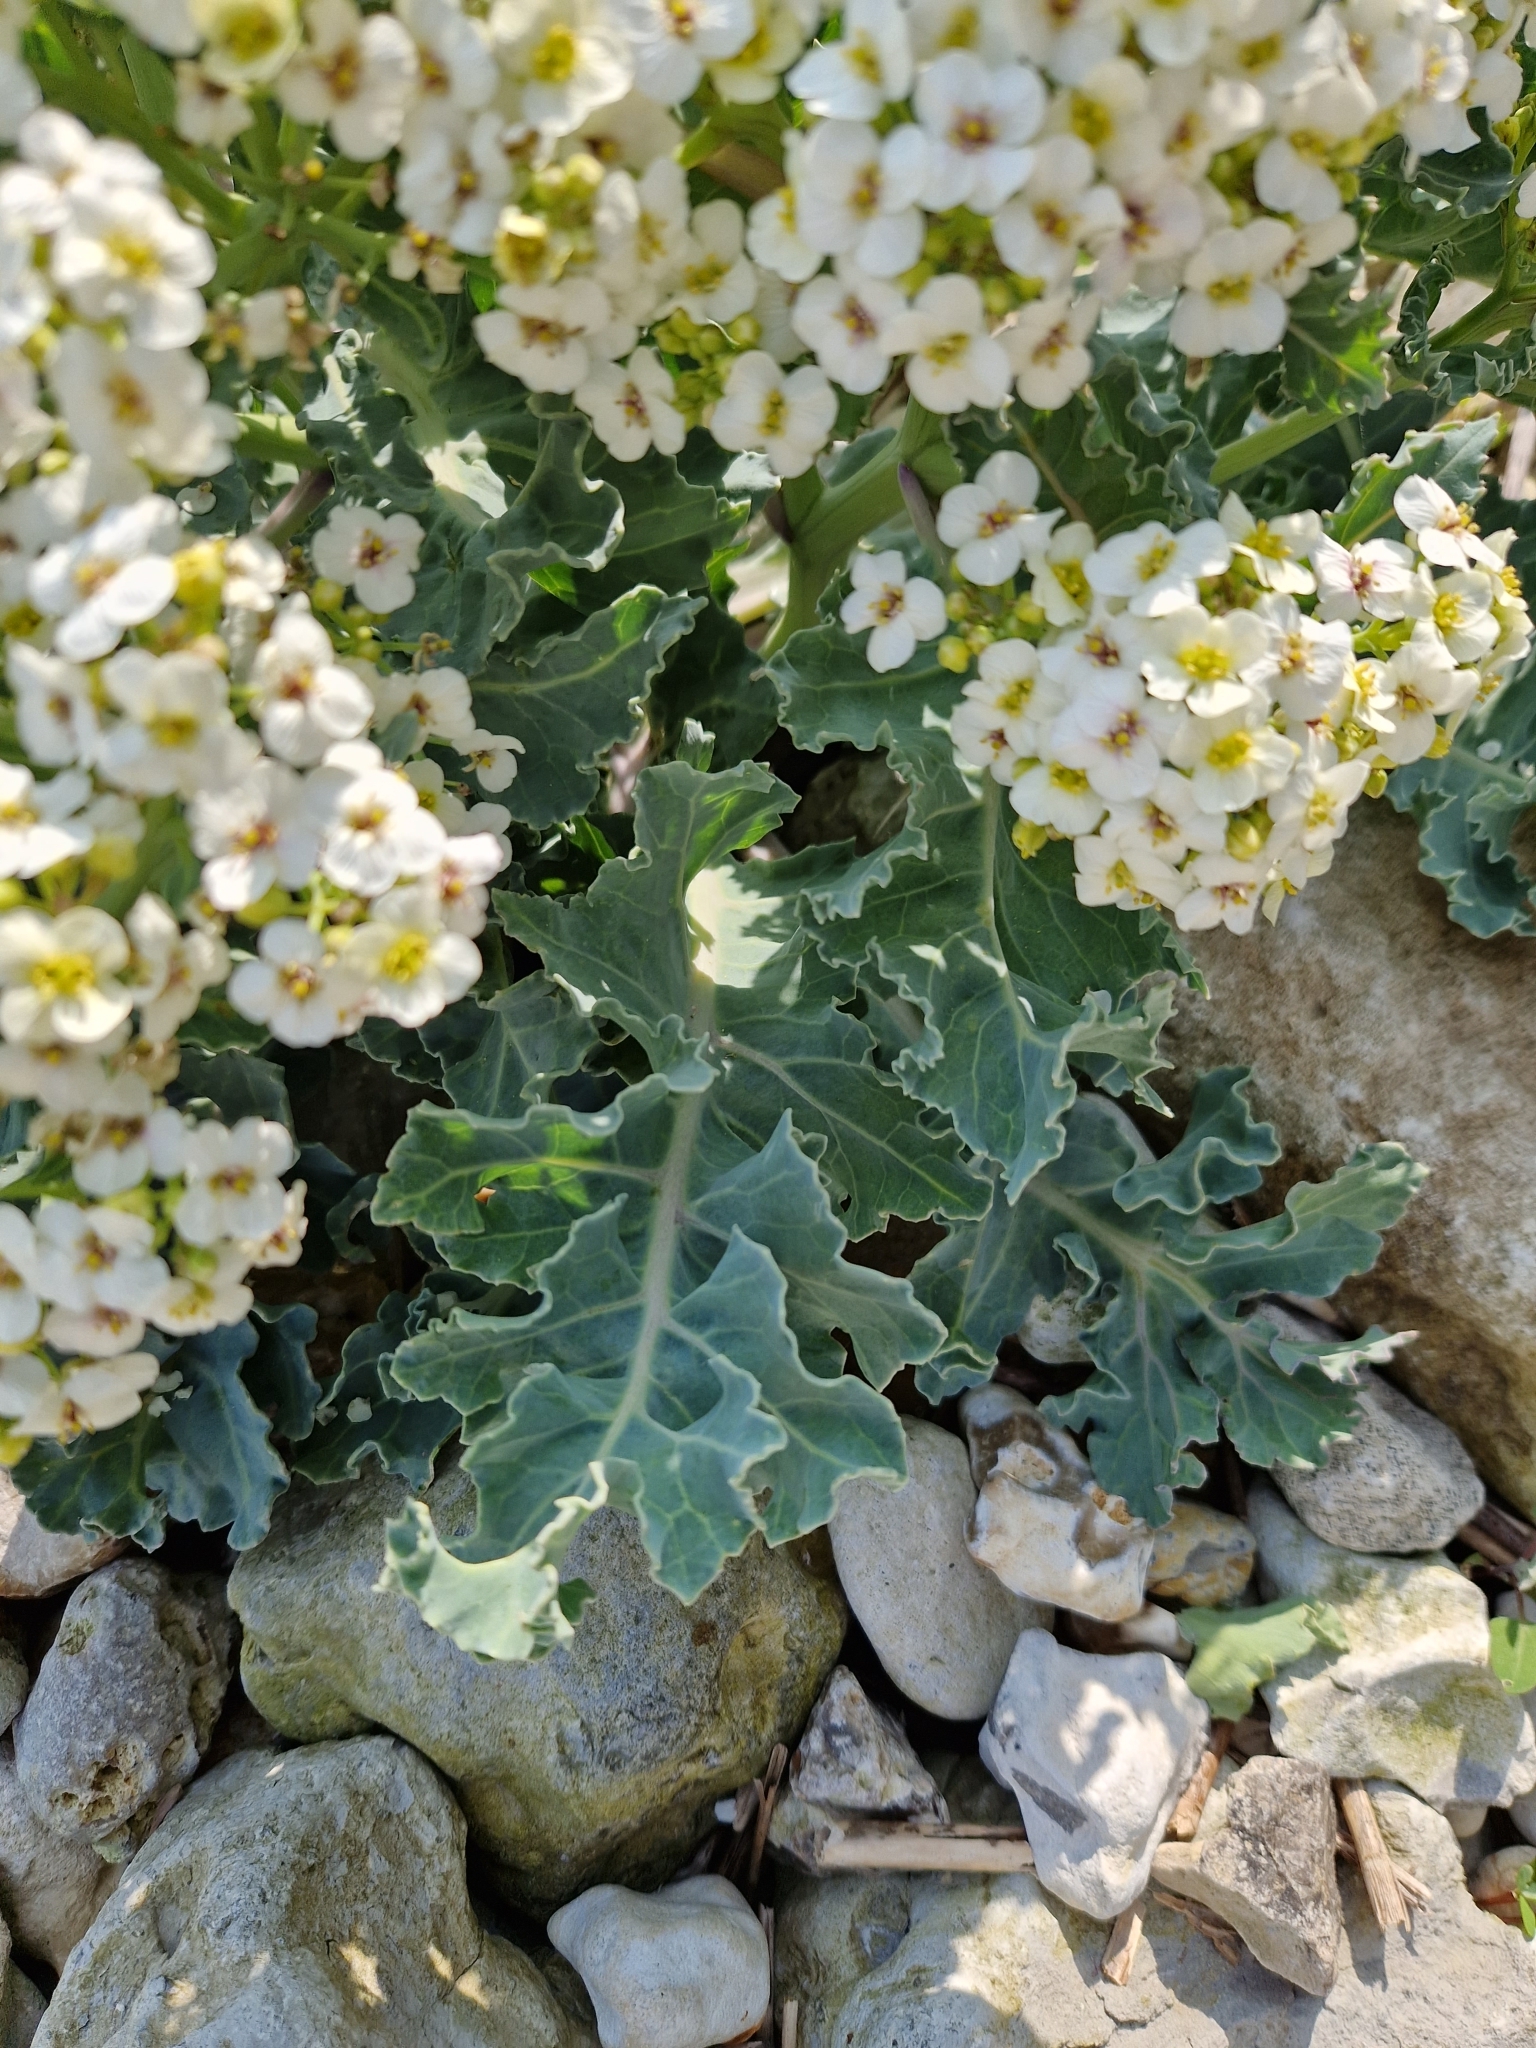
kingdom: Plantae
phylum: Tracheophyta
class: Magnoliopsida
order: Brassicales
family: Brassicaceae
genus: Crambe
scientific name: Crambe maritima
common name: Sea-kale
